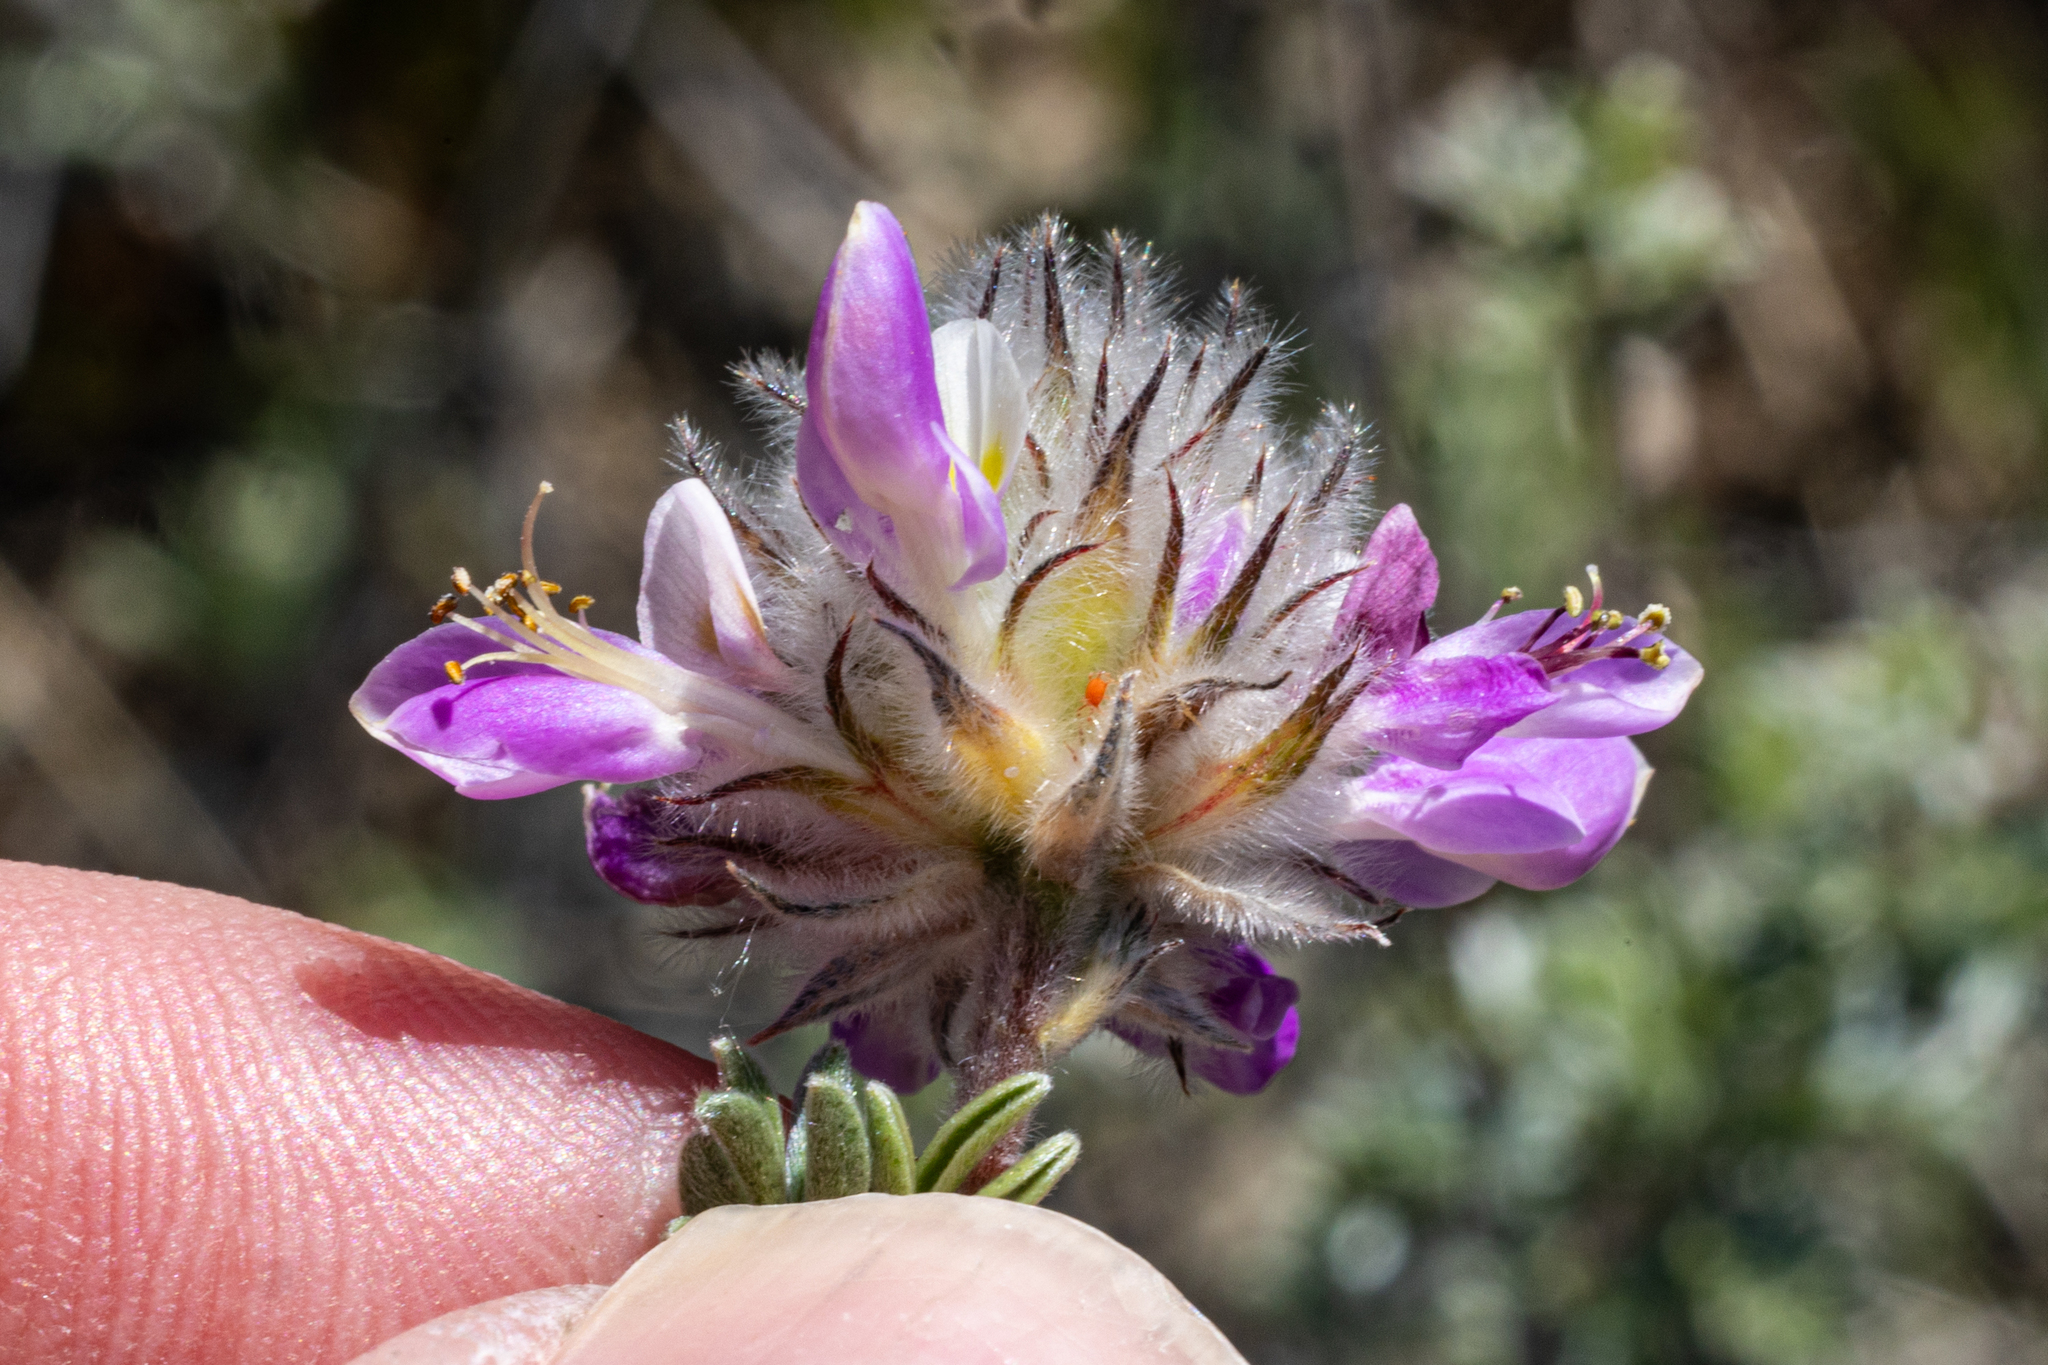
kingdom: Plantae
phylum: Tracheophyta
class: Magnoliopsida
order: Fabales
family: Fabaceae
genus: Dalea
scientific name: Dalea pulchra
